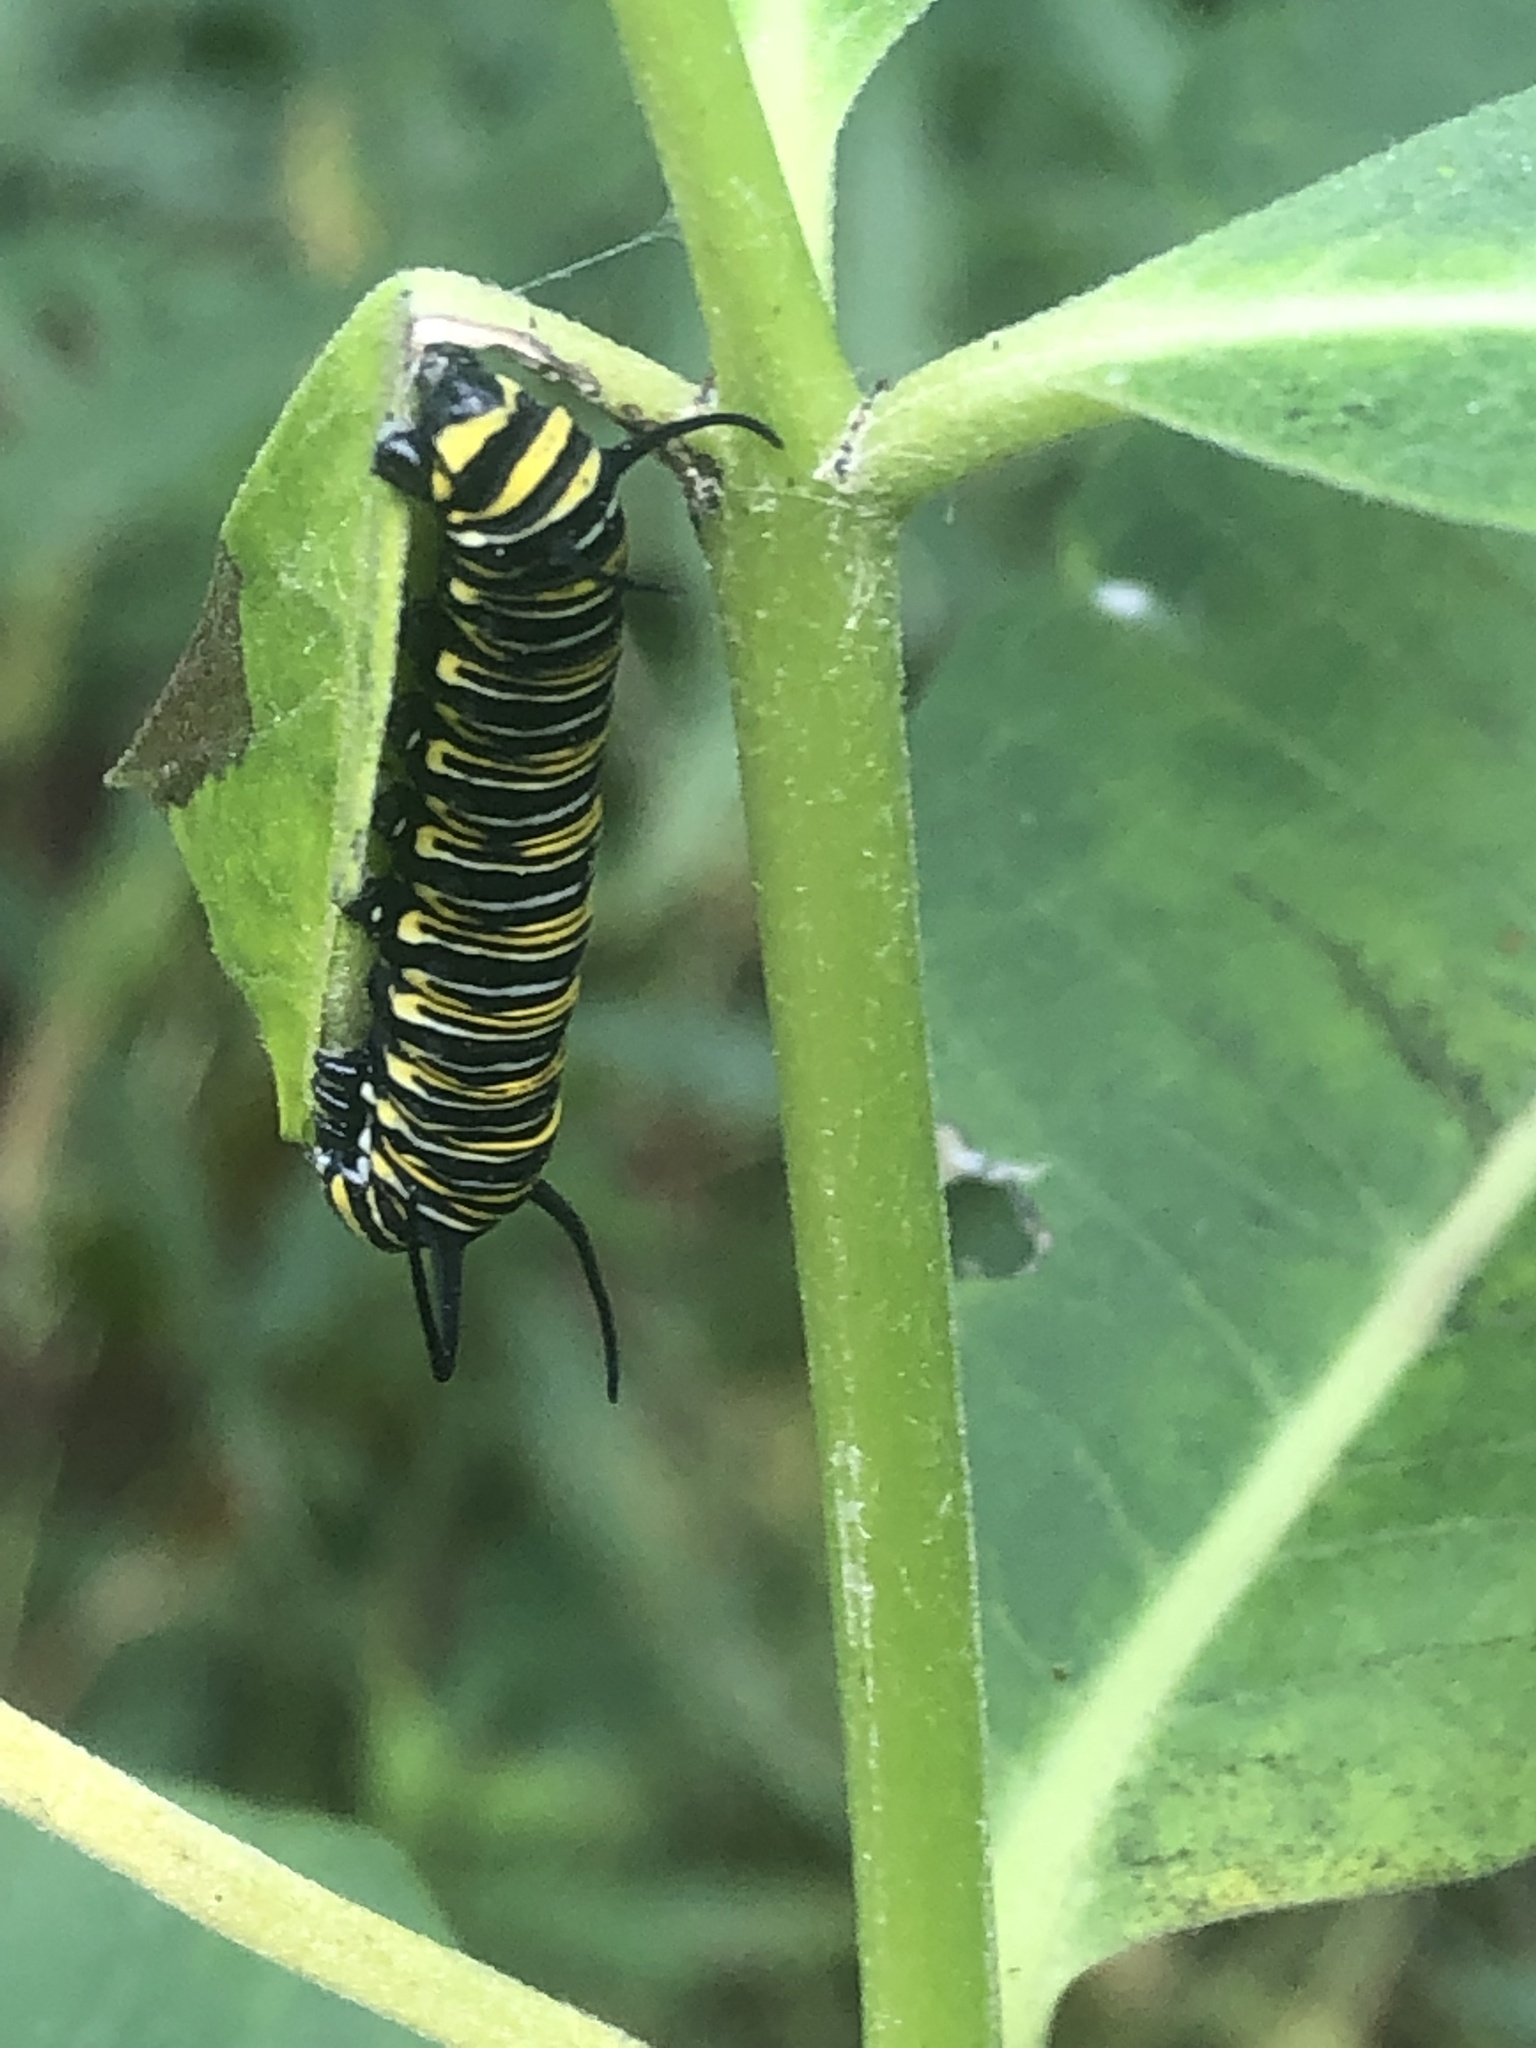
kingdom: Animalia
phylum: Arthropoda
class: Insecta
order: Lepidoptera
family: Nymphalidae
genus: Danaus
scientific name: Danaus plexippus
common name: Monarch
